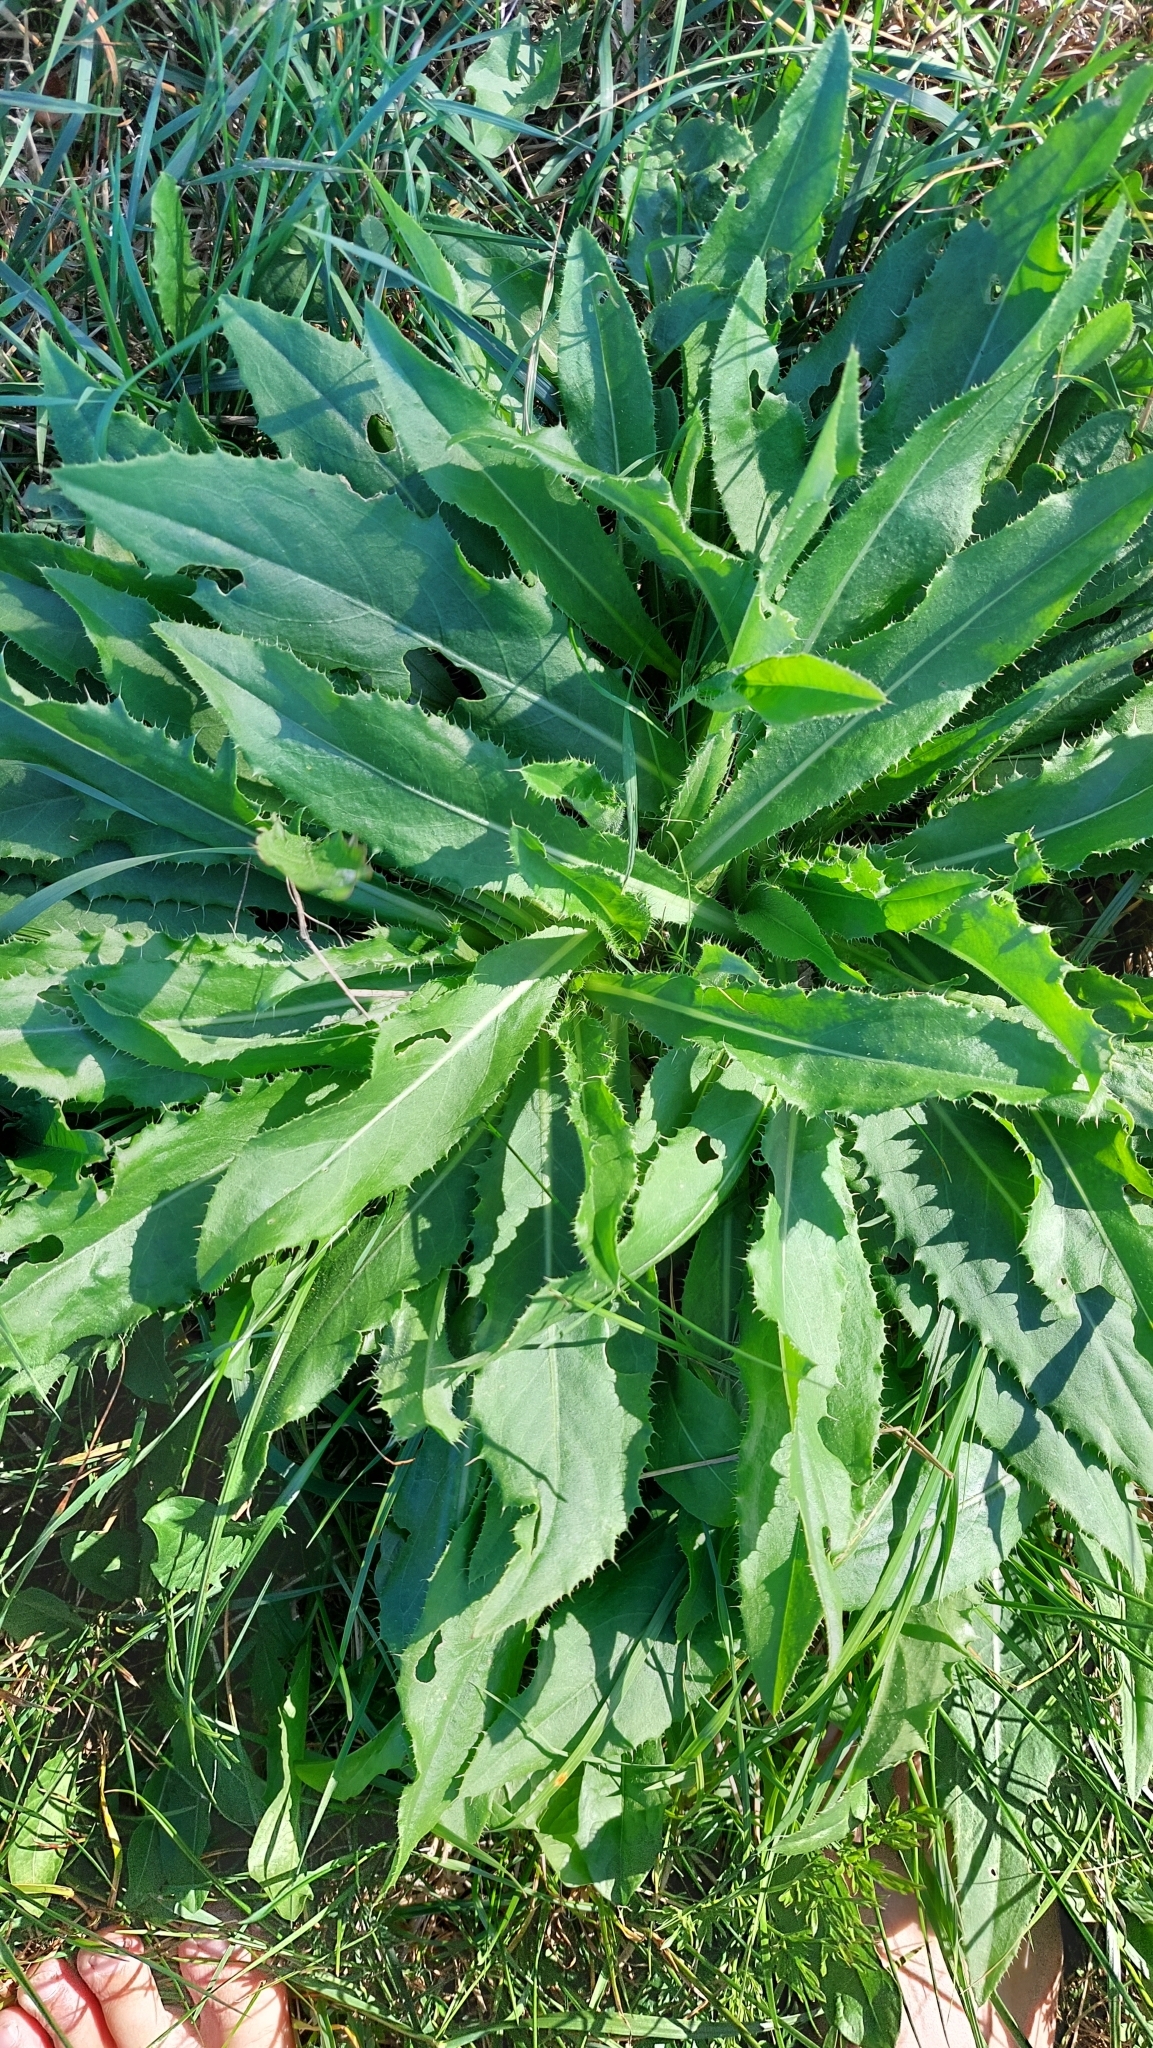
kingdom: Plantae
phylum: Tracheophyta
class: Magnoliopsida
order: Asterales
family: Asteraceae
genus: Cirsium
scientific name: Cirsium canum
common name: Queen anne's thistle
